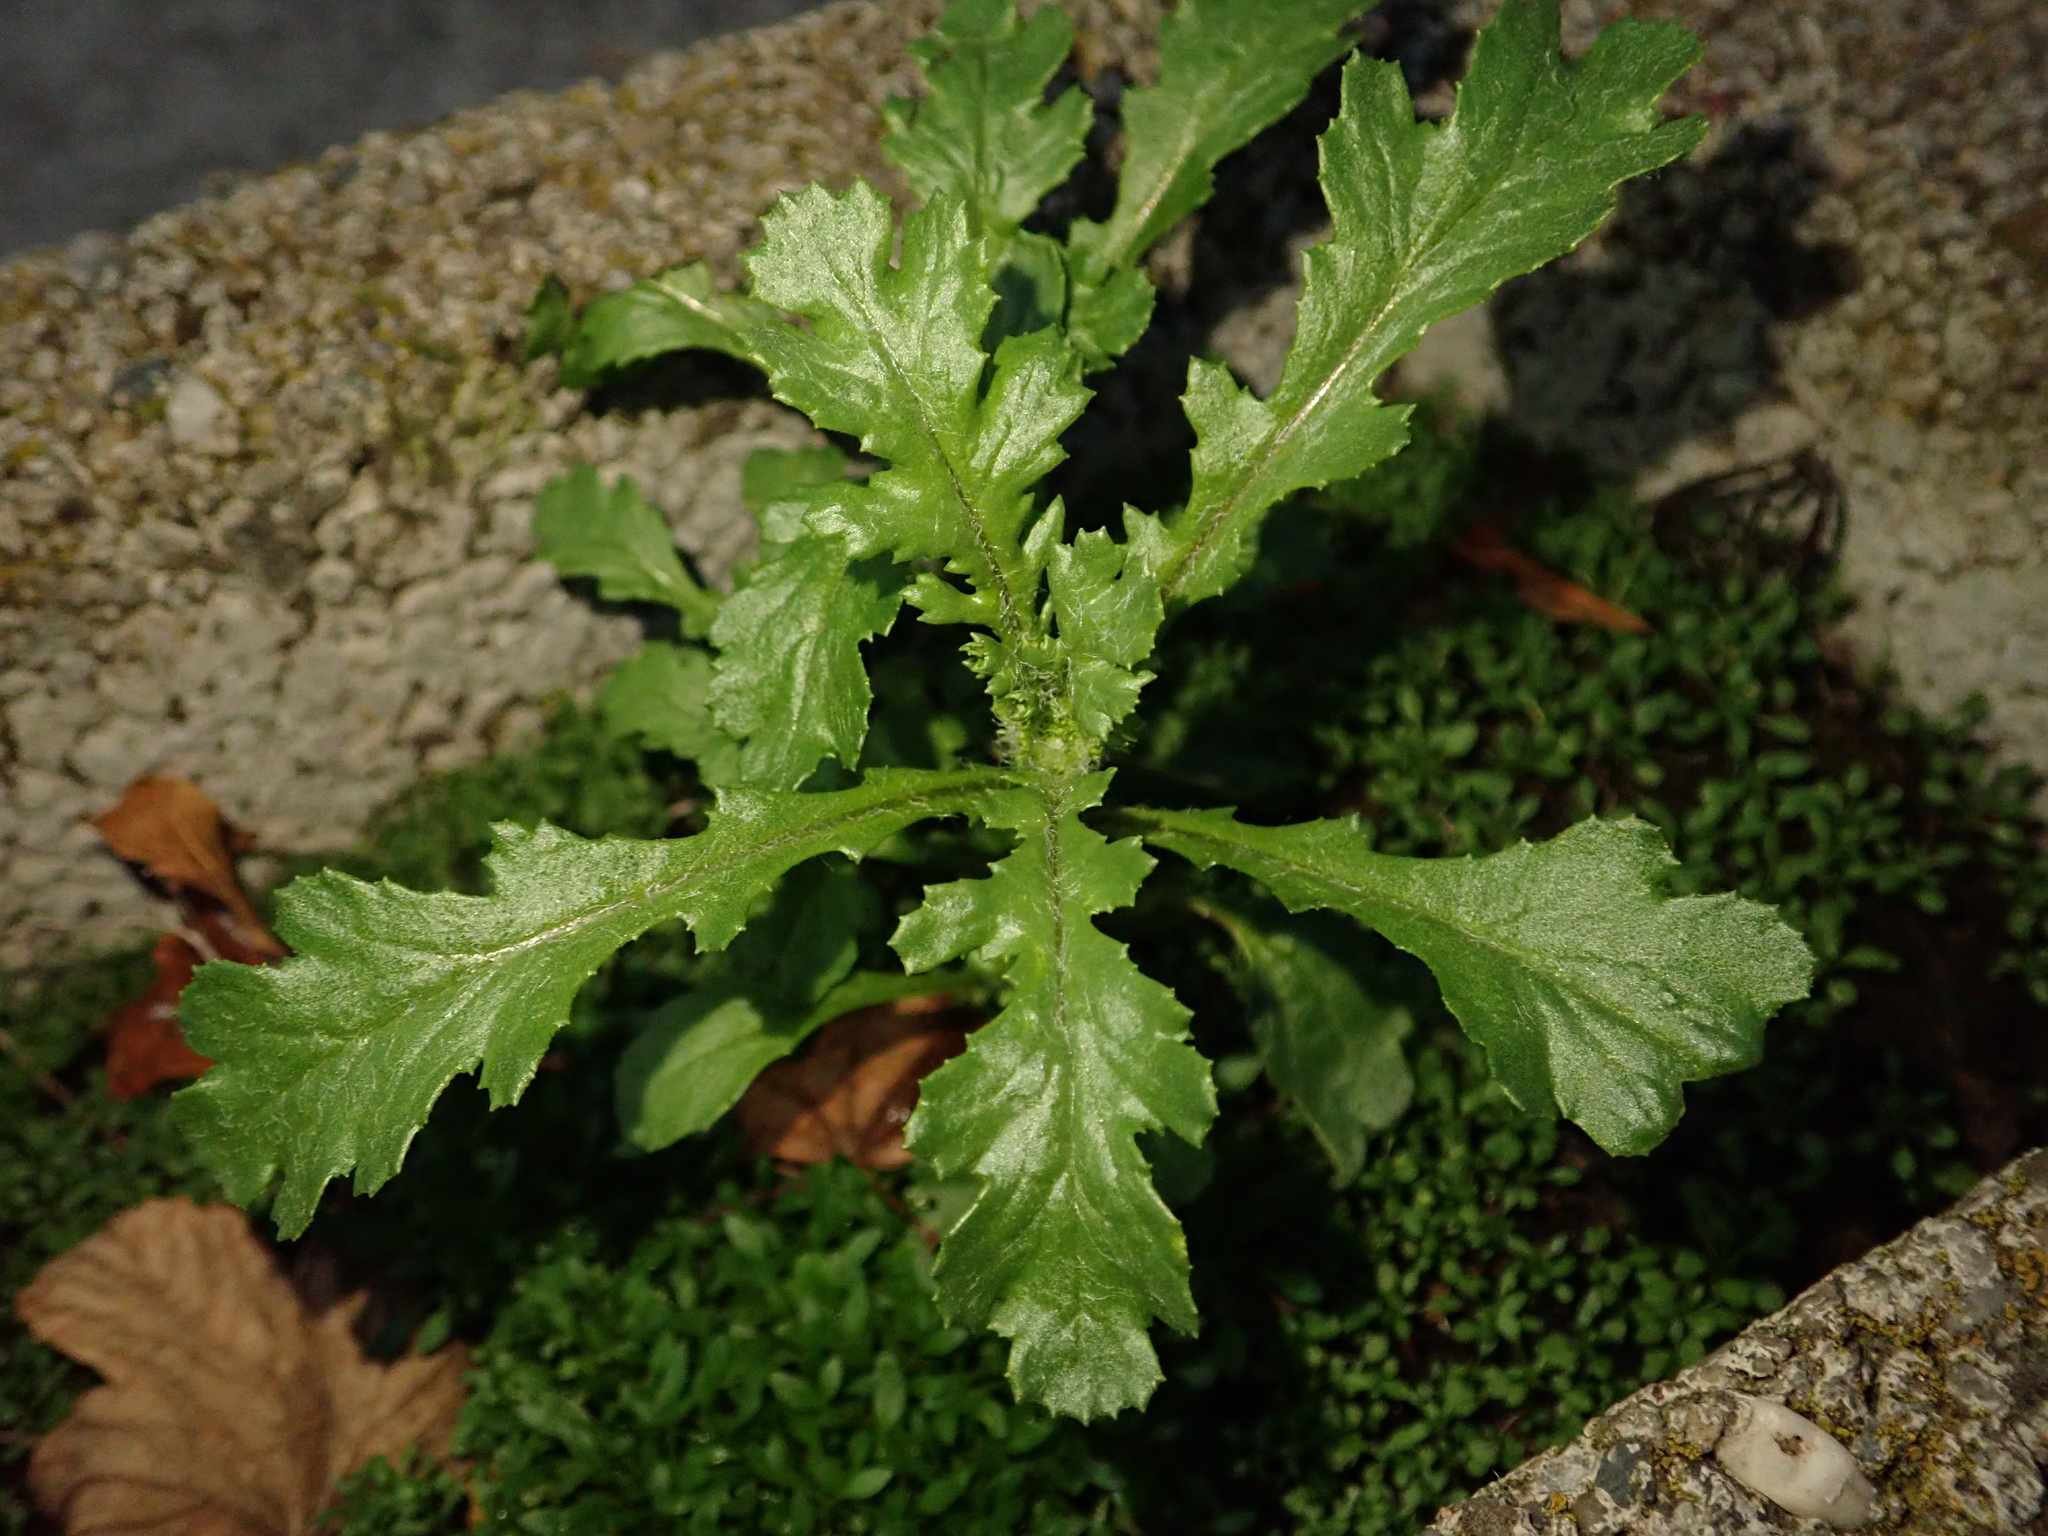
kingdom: Plantae
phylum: Tracheophyta
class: Magnoliopsida
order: Asterales
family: Asteraceae
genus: Senecio
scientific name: Senecio vulgaris
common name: Old-man-in-the-spring
